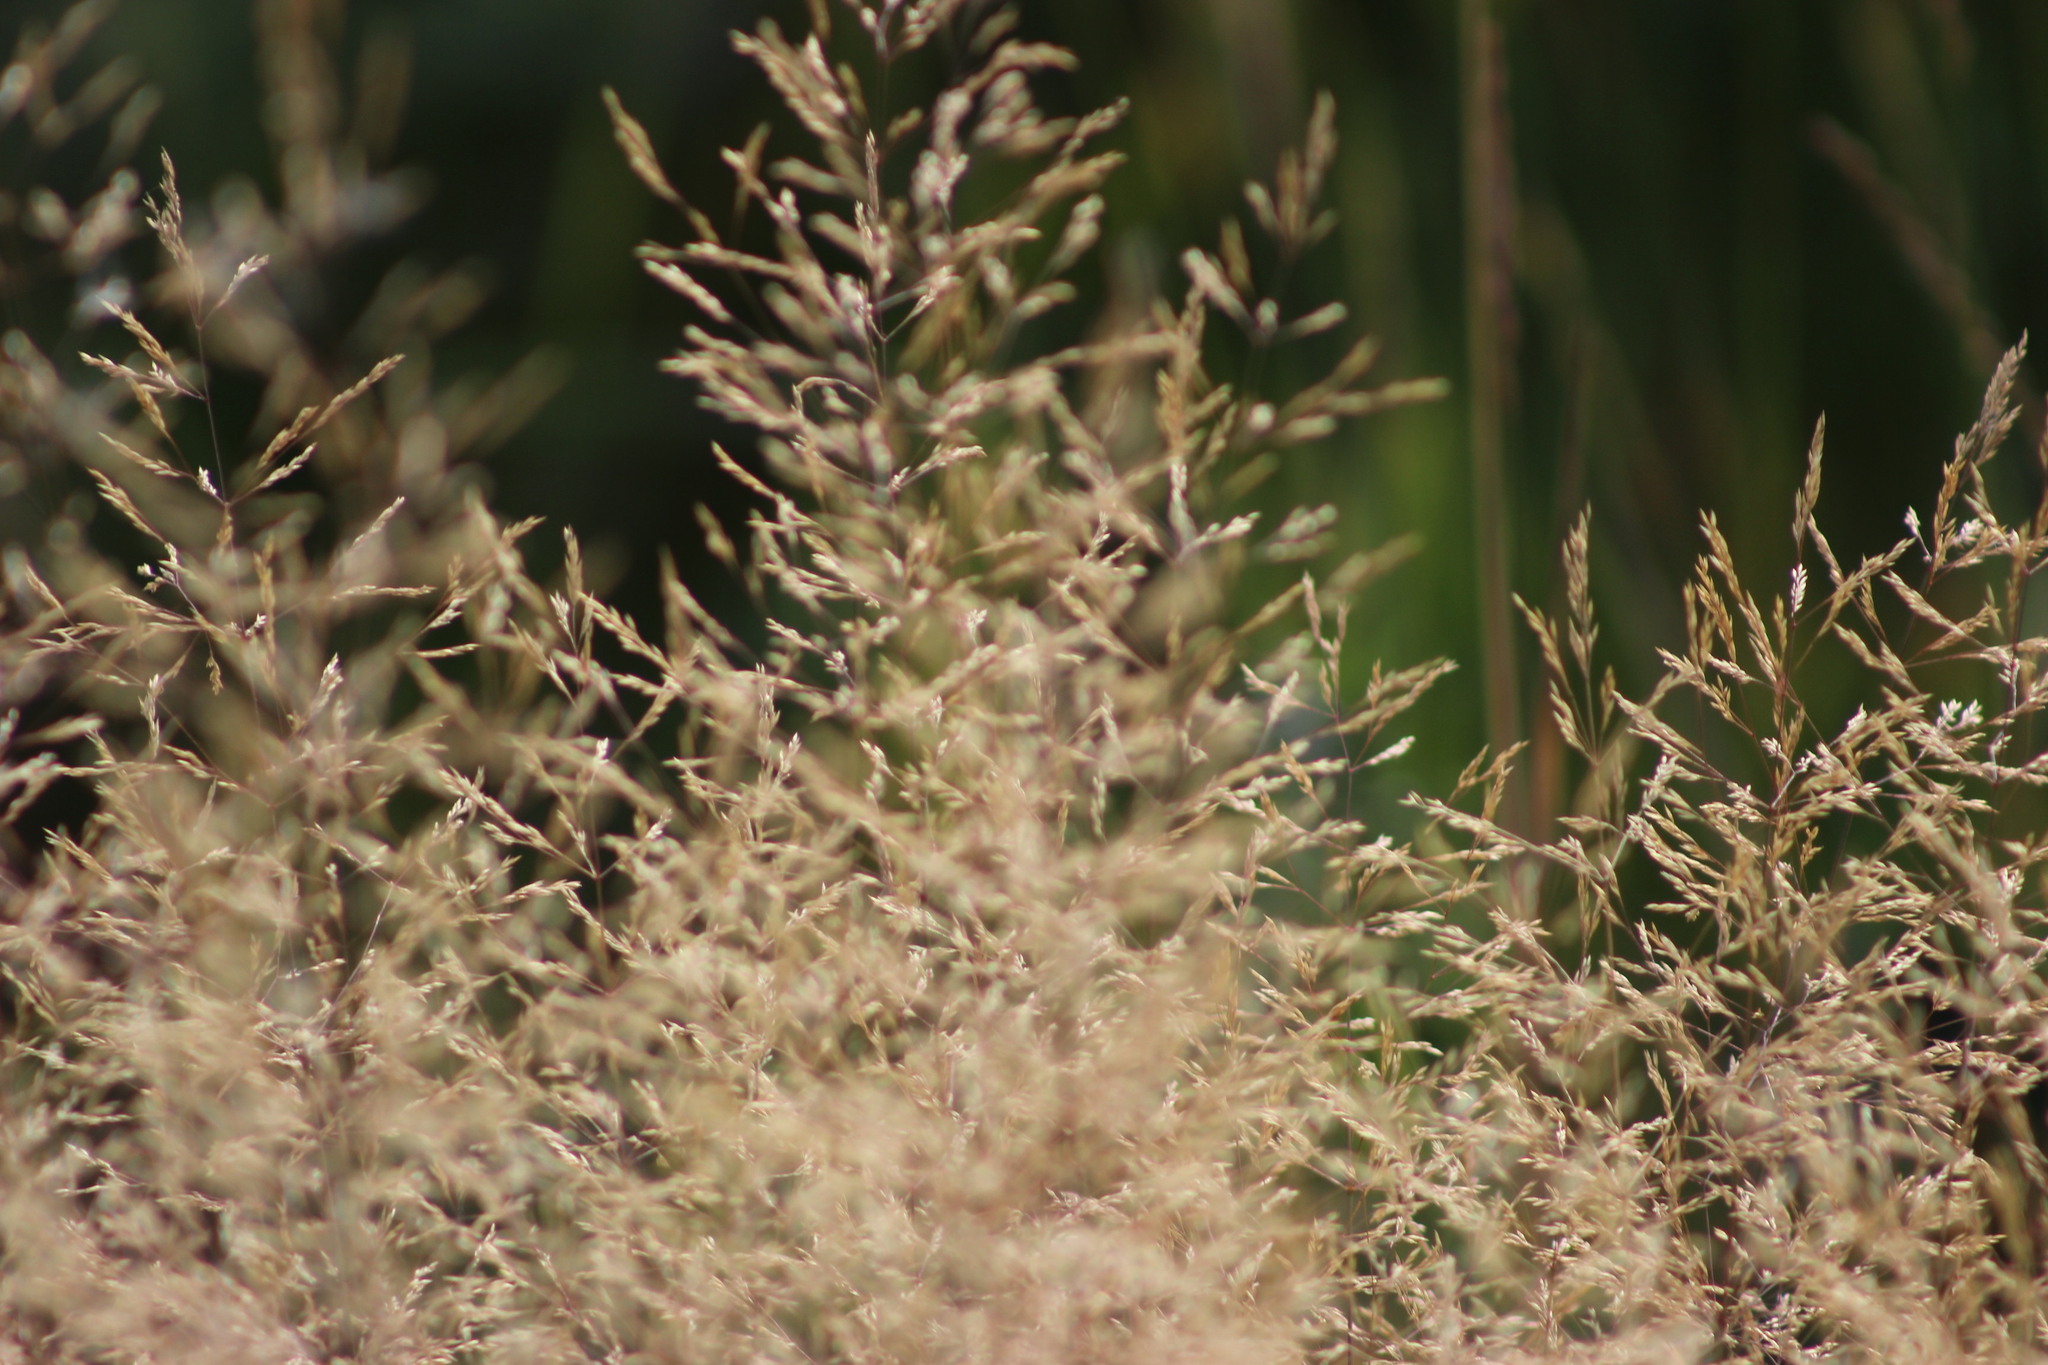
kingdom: Plantae
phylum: Tracheophyta
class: Liliopsida
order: Poales
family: Poaceae
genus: Agrostis
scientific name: Agrostis gigantea
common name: Black bent
